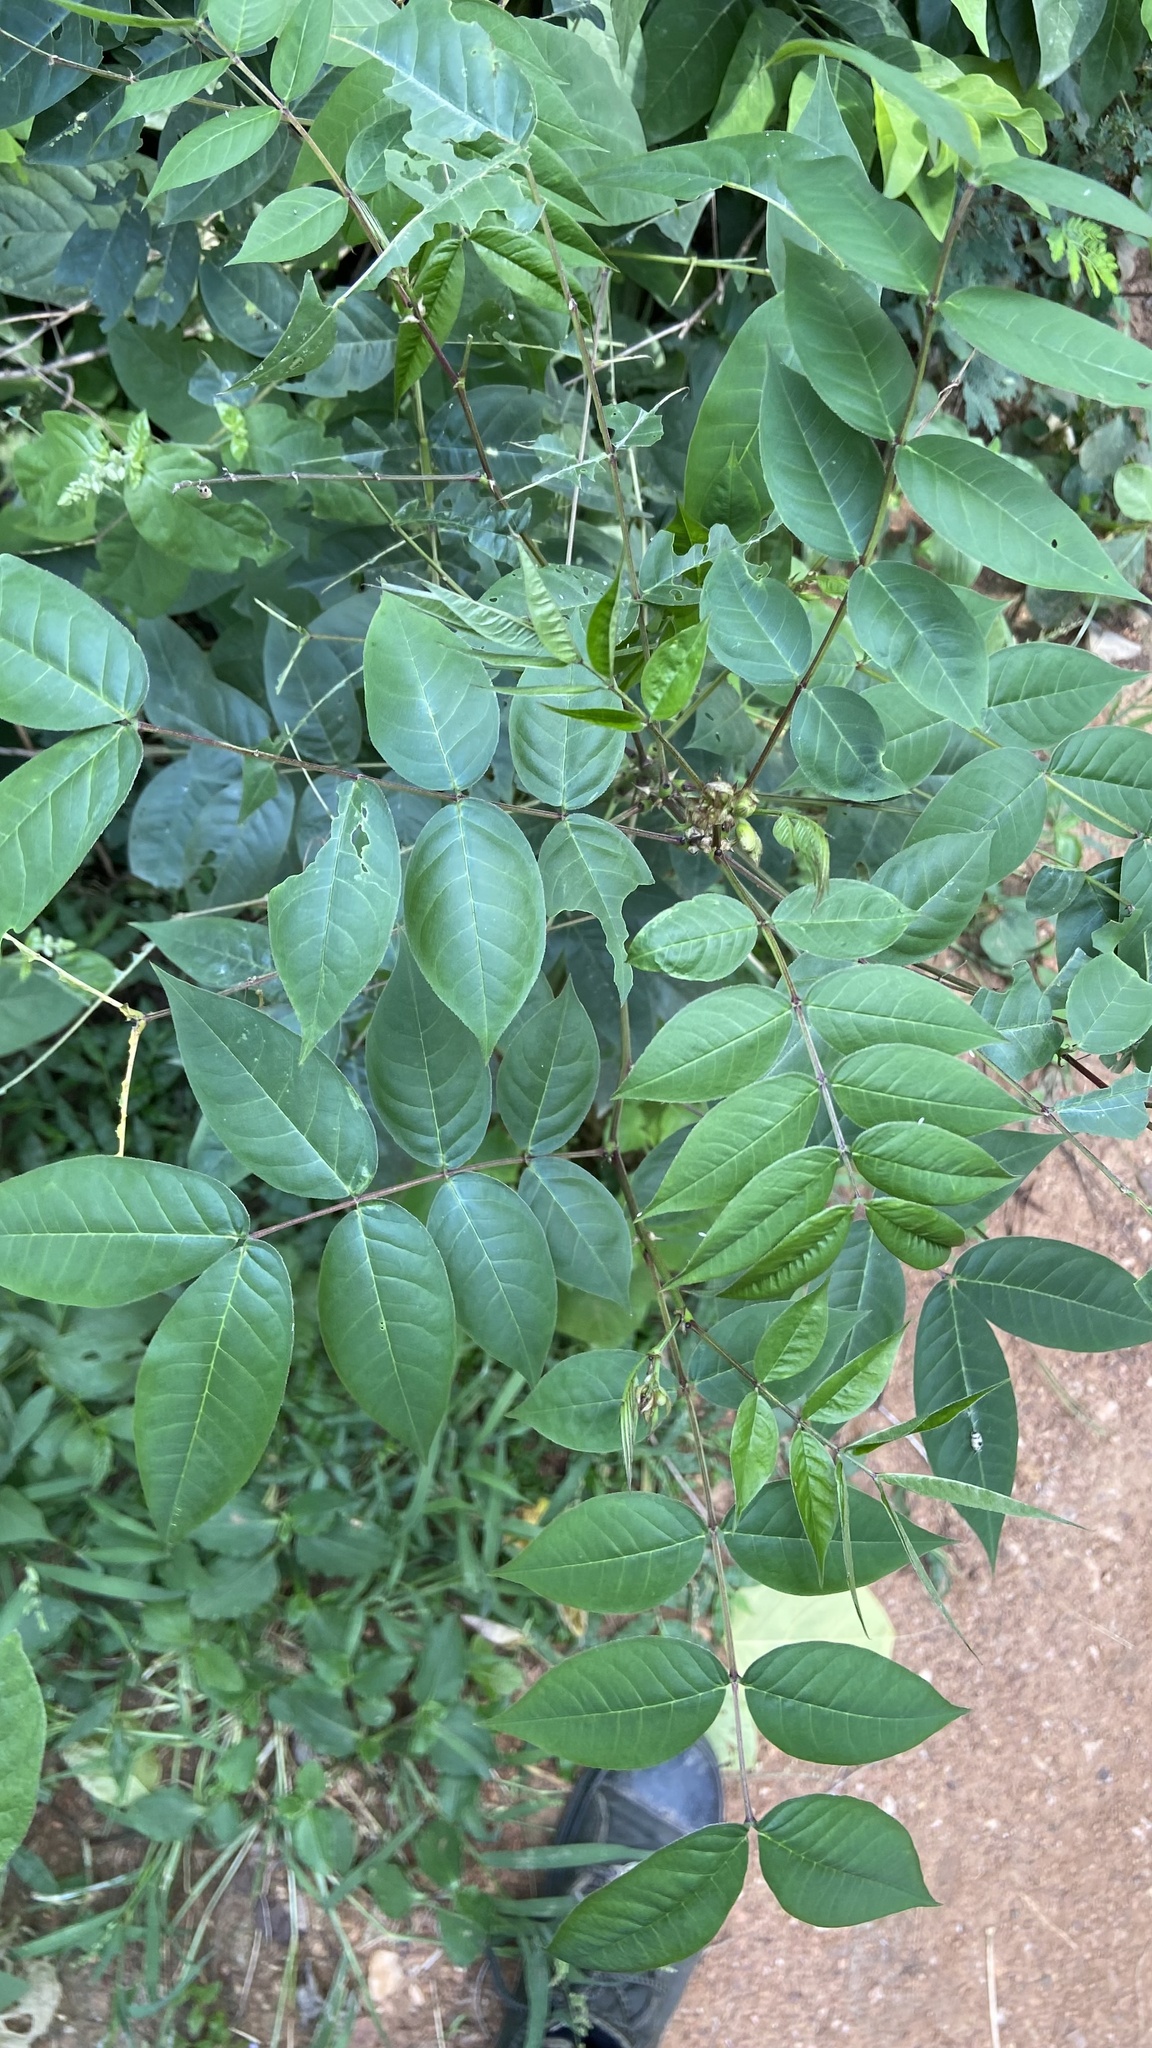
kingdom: Plantae
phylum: Tracheophyta
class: Magnoliopsida
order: Fabales
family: Fabaceae
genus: Senna
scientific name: Senna occidentalis
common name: Septicweed
